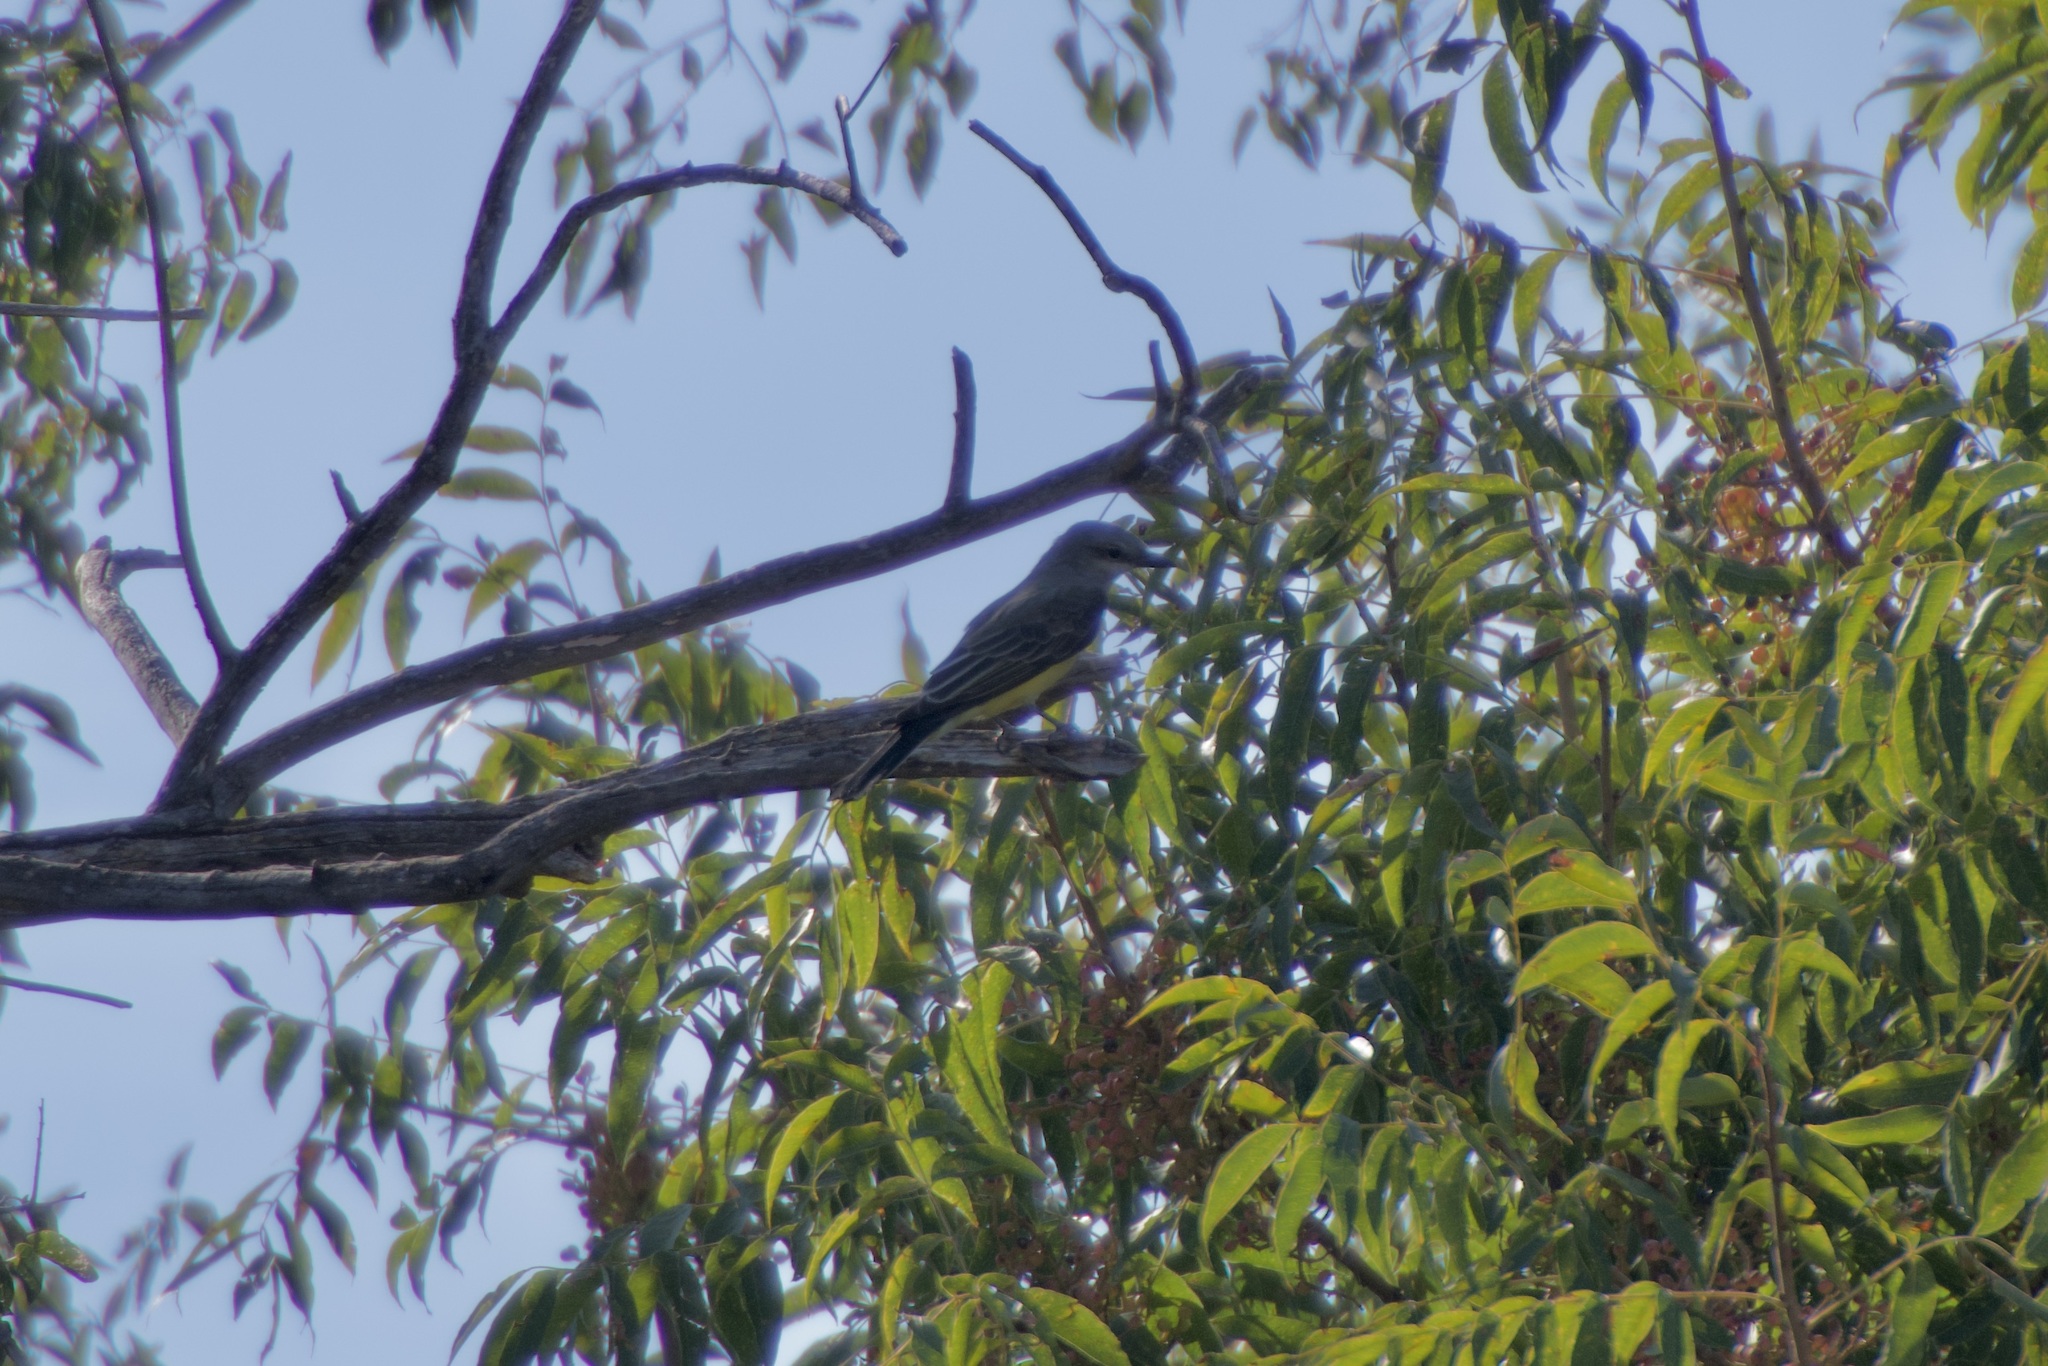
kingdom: Animalia
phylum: Chordata
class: Aves
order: Passeriformes
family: Tyrannidae
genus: Tyrannus
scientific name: Tyrannus vociferans
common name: Cassin's kingbird
